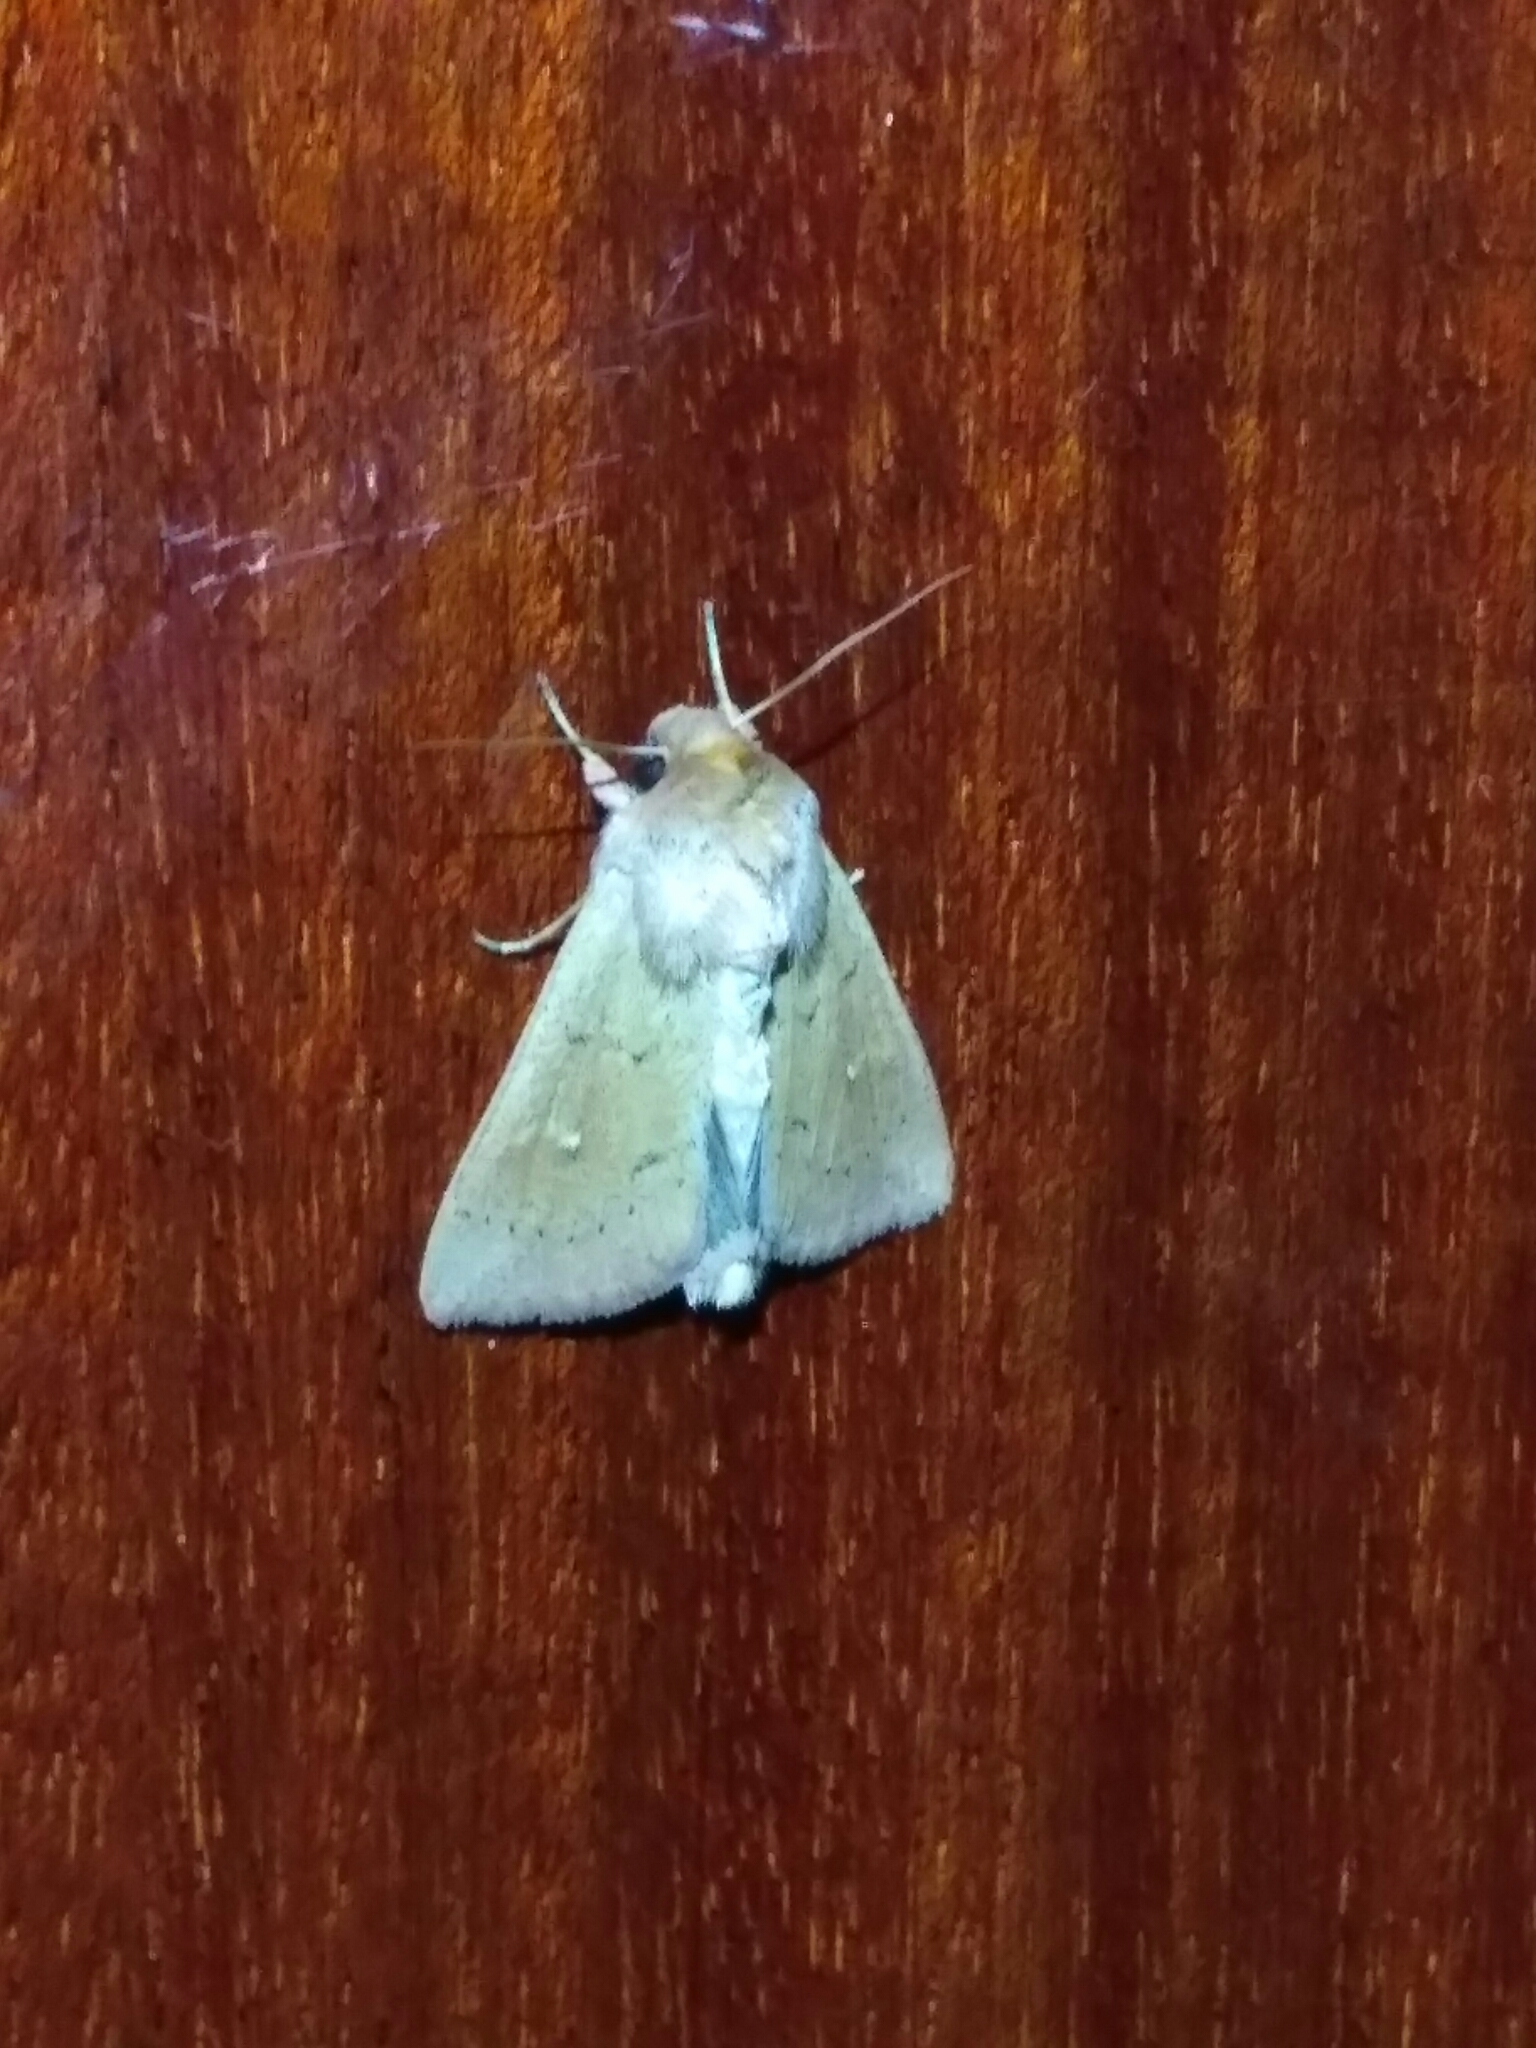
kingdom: Animalia
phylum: Arthropoda
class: Insecta
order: Lepidoptera
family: Noctuidae
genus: Mythimna
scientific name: Mythimna ferrago
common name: Clay
